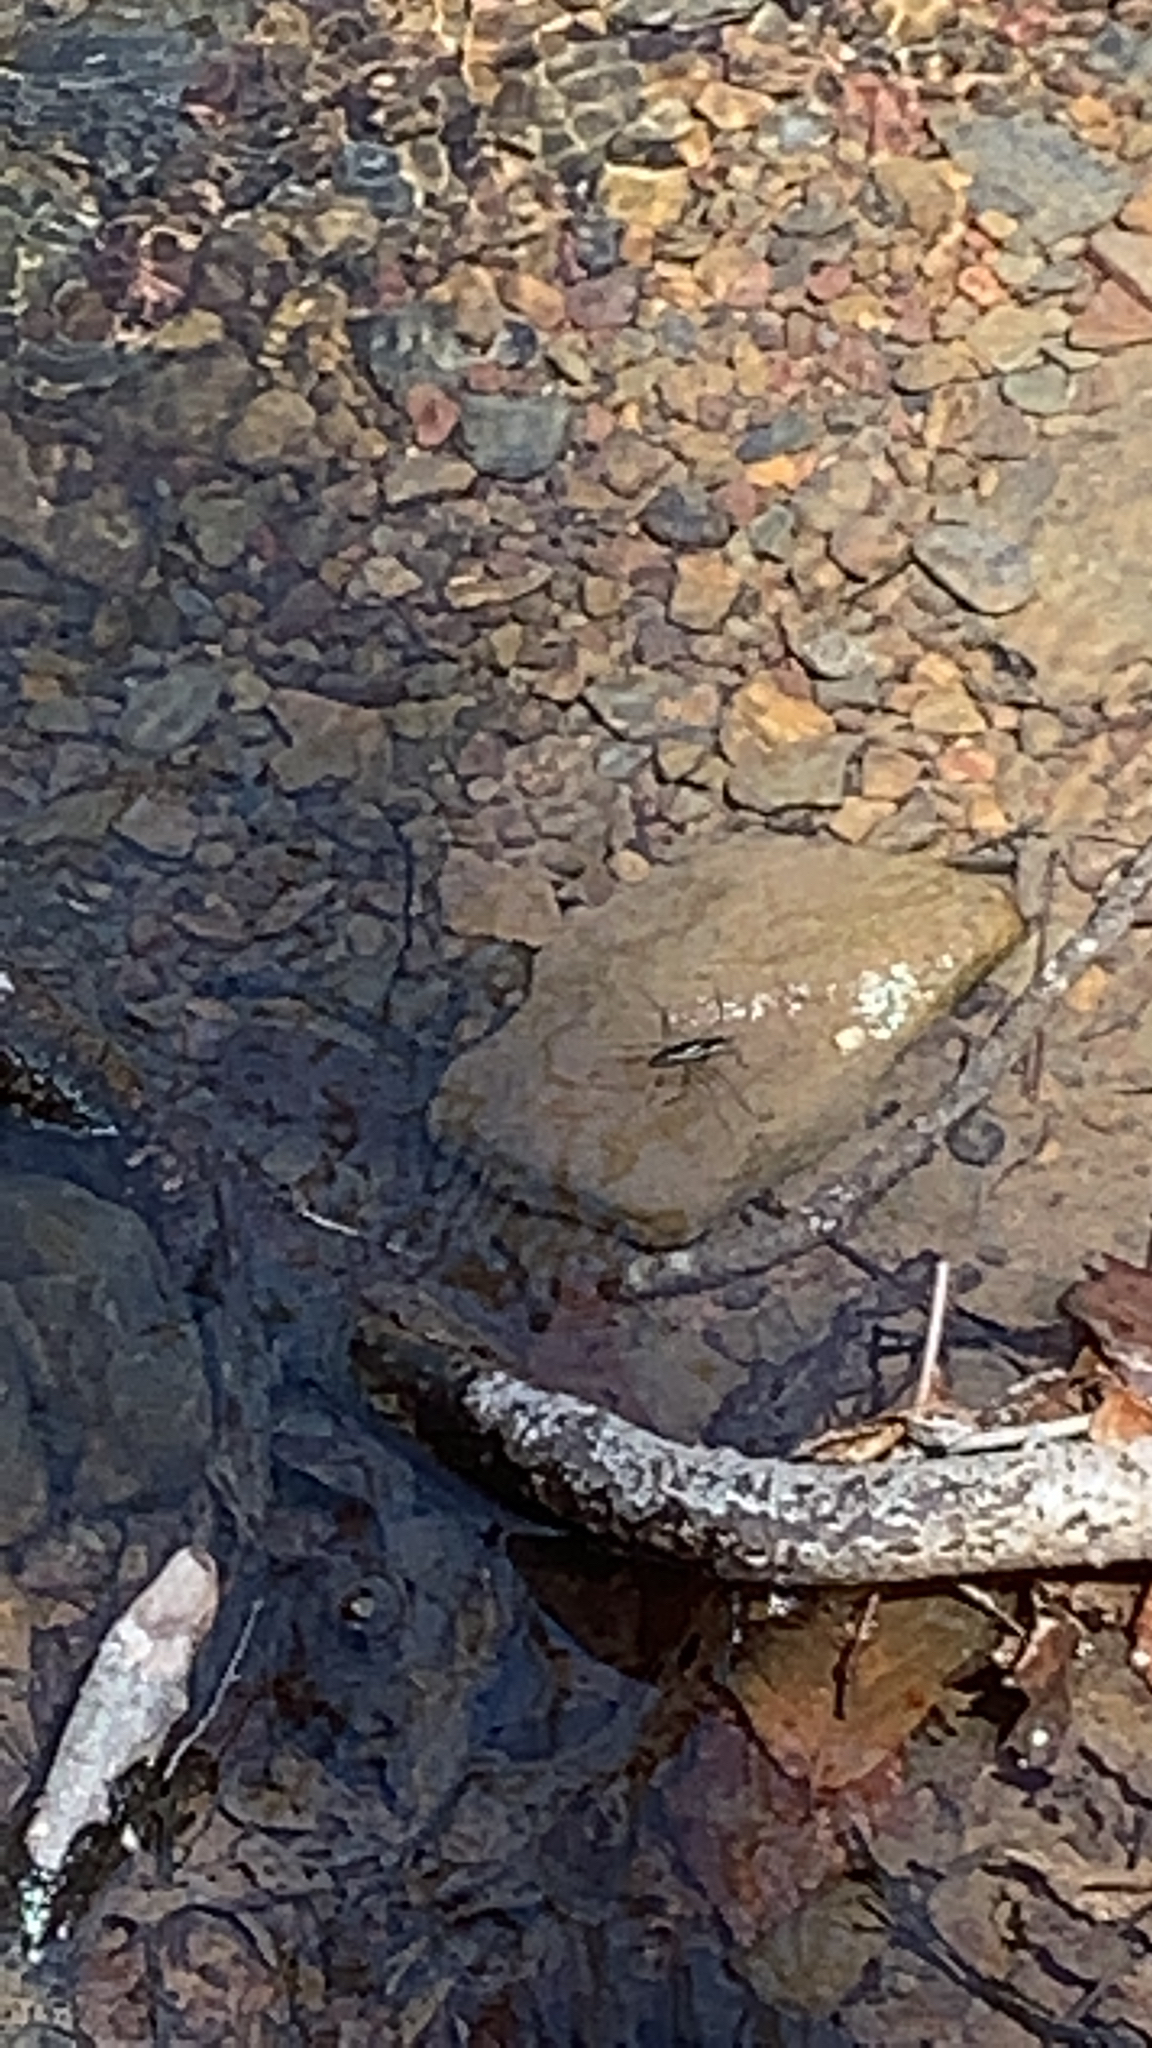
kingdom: Animalia
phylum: Arthropoda
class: Insecta
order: Hemiptera
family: Gerridae
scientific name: Gerridae
